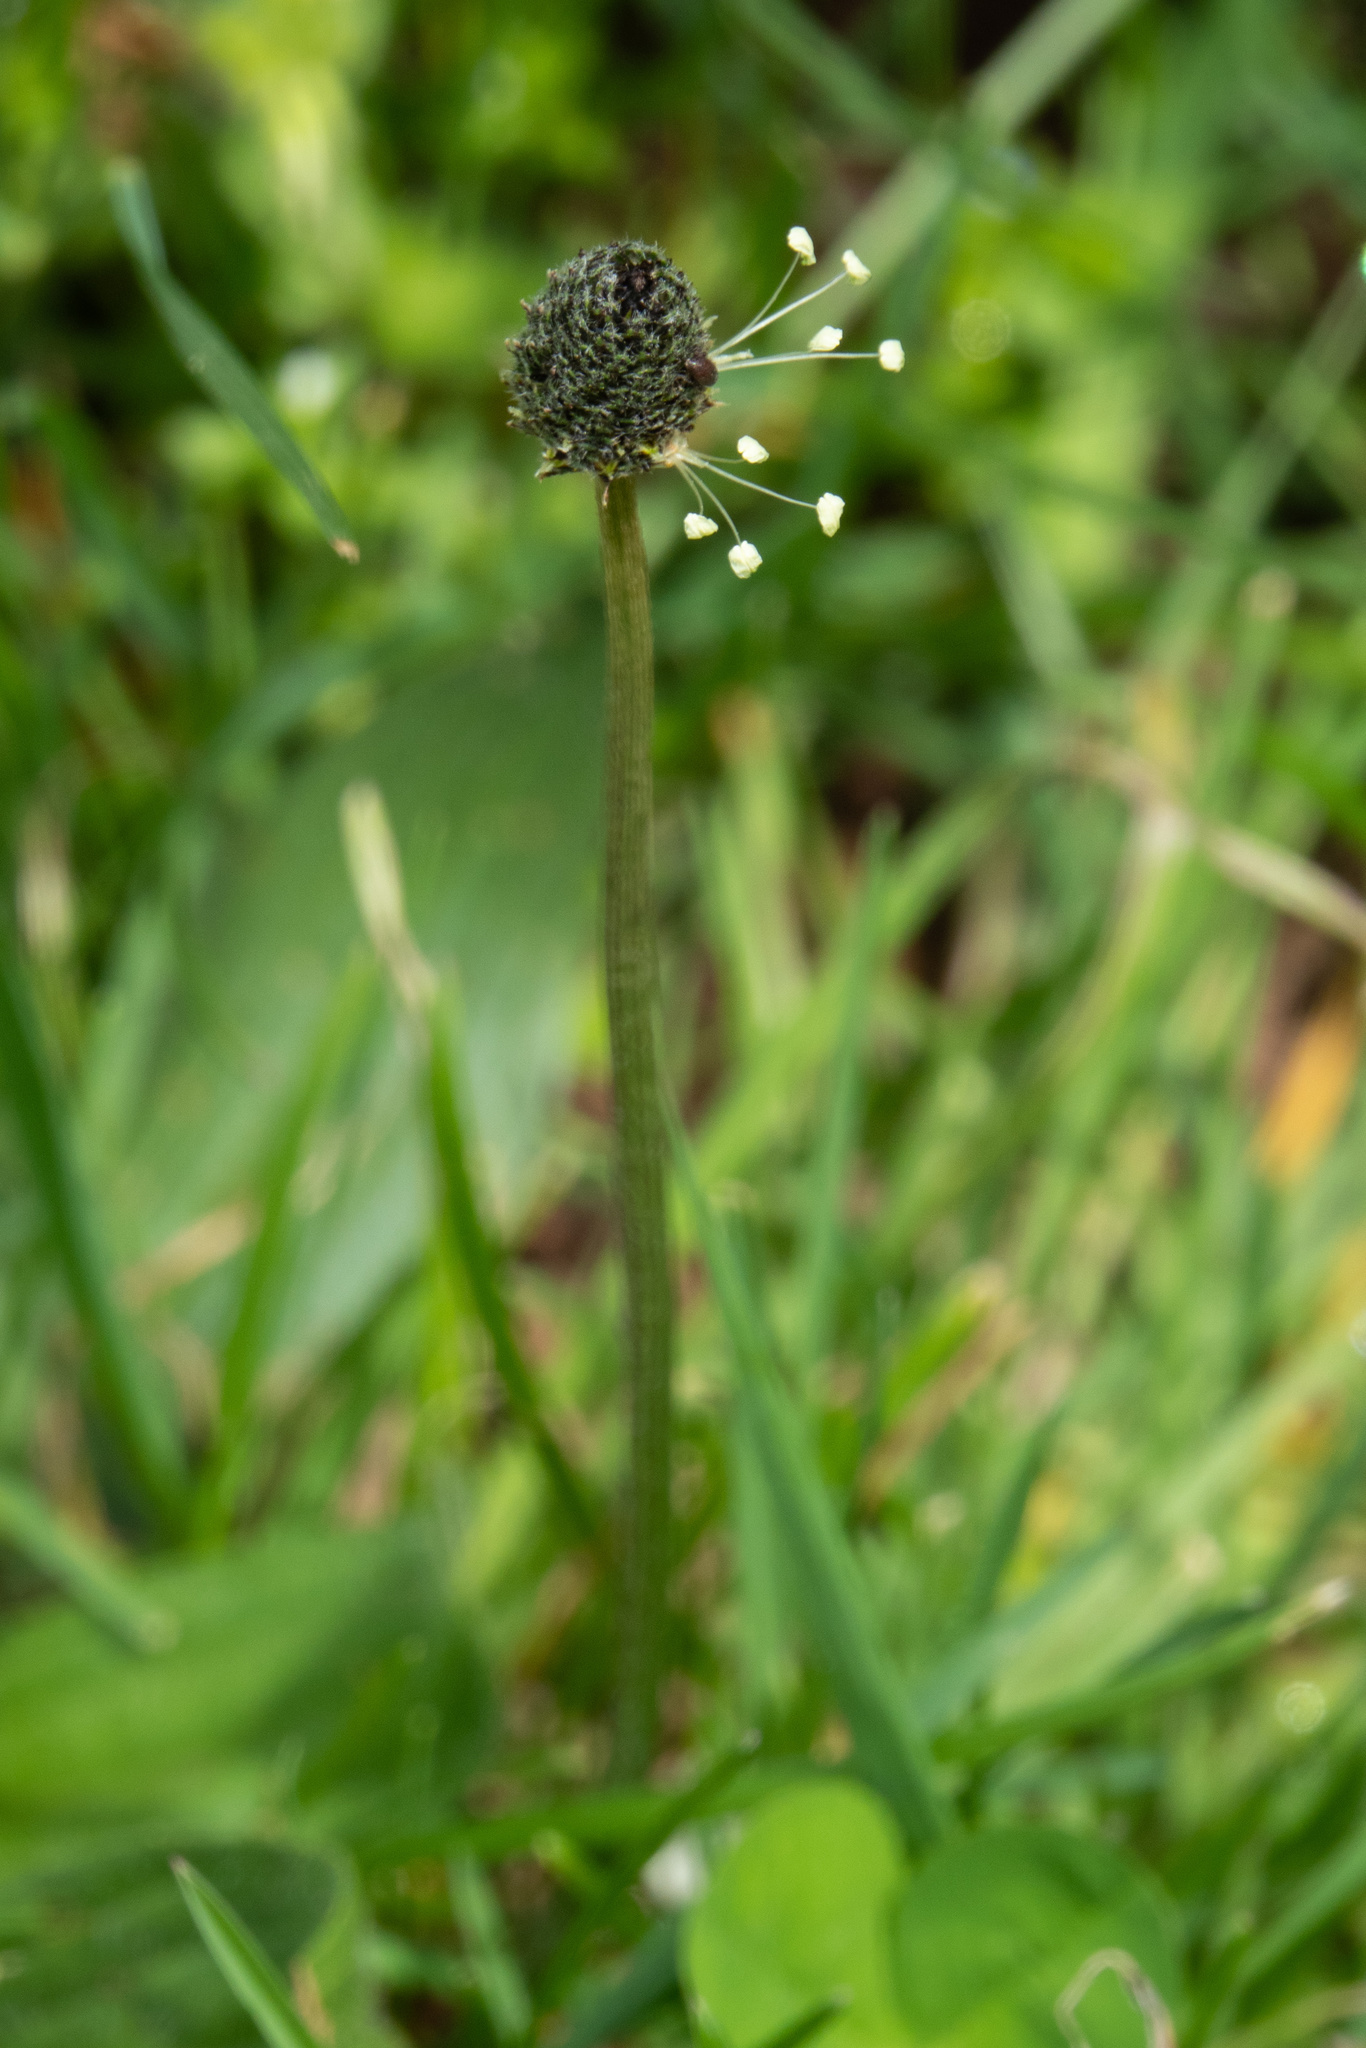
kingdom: Plantae
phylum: Tracheophyta
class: Magnoliopsida
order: Lamiales
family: Plantaginaceae
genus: Plantago
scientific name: Plantago lanceolata
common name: Ribwort plantain
